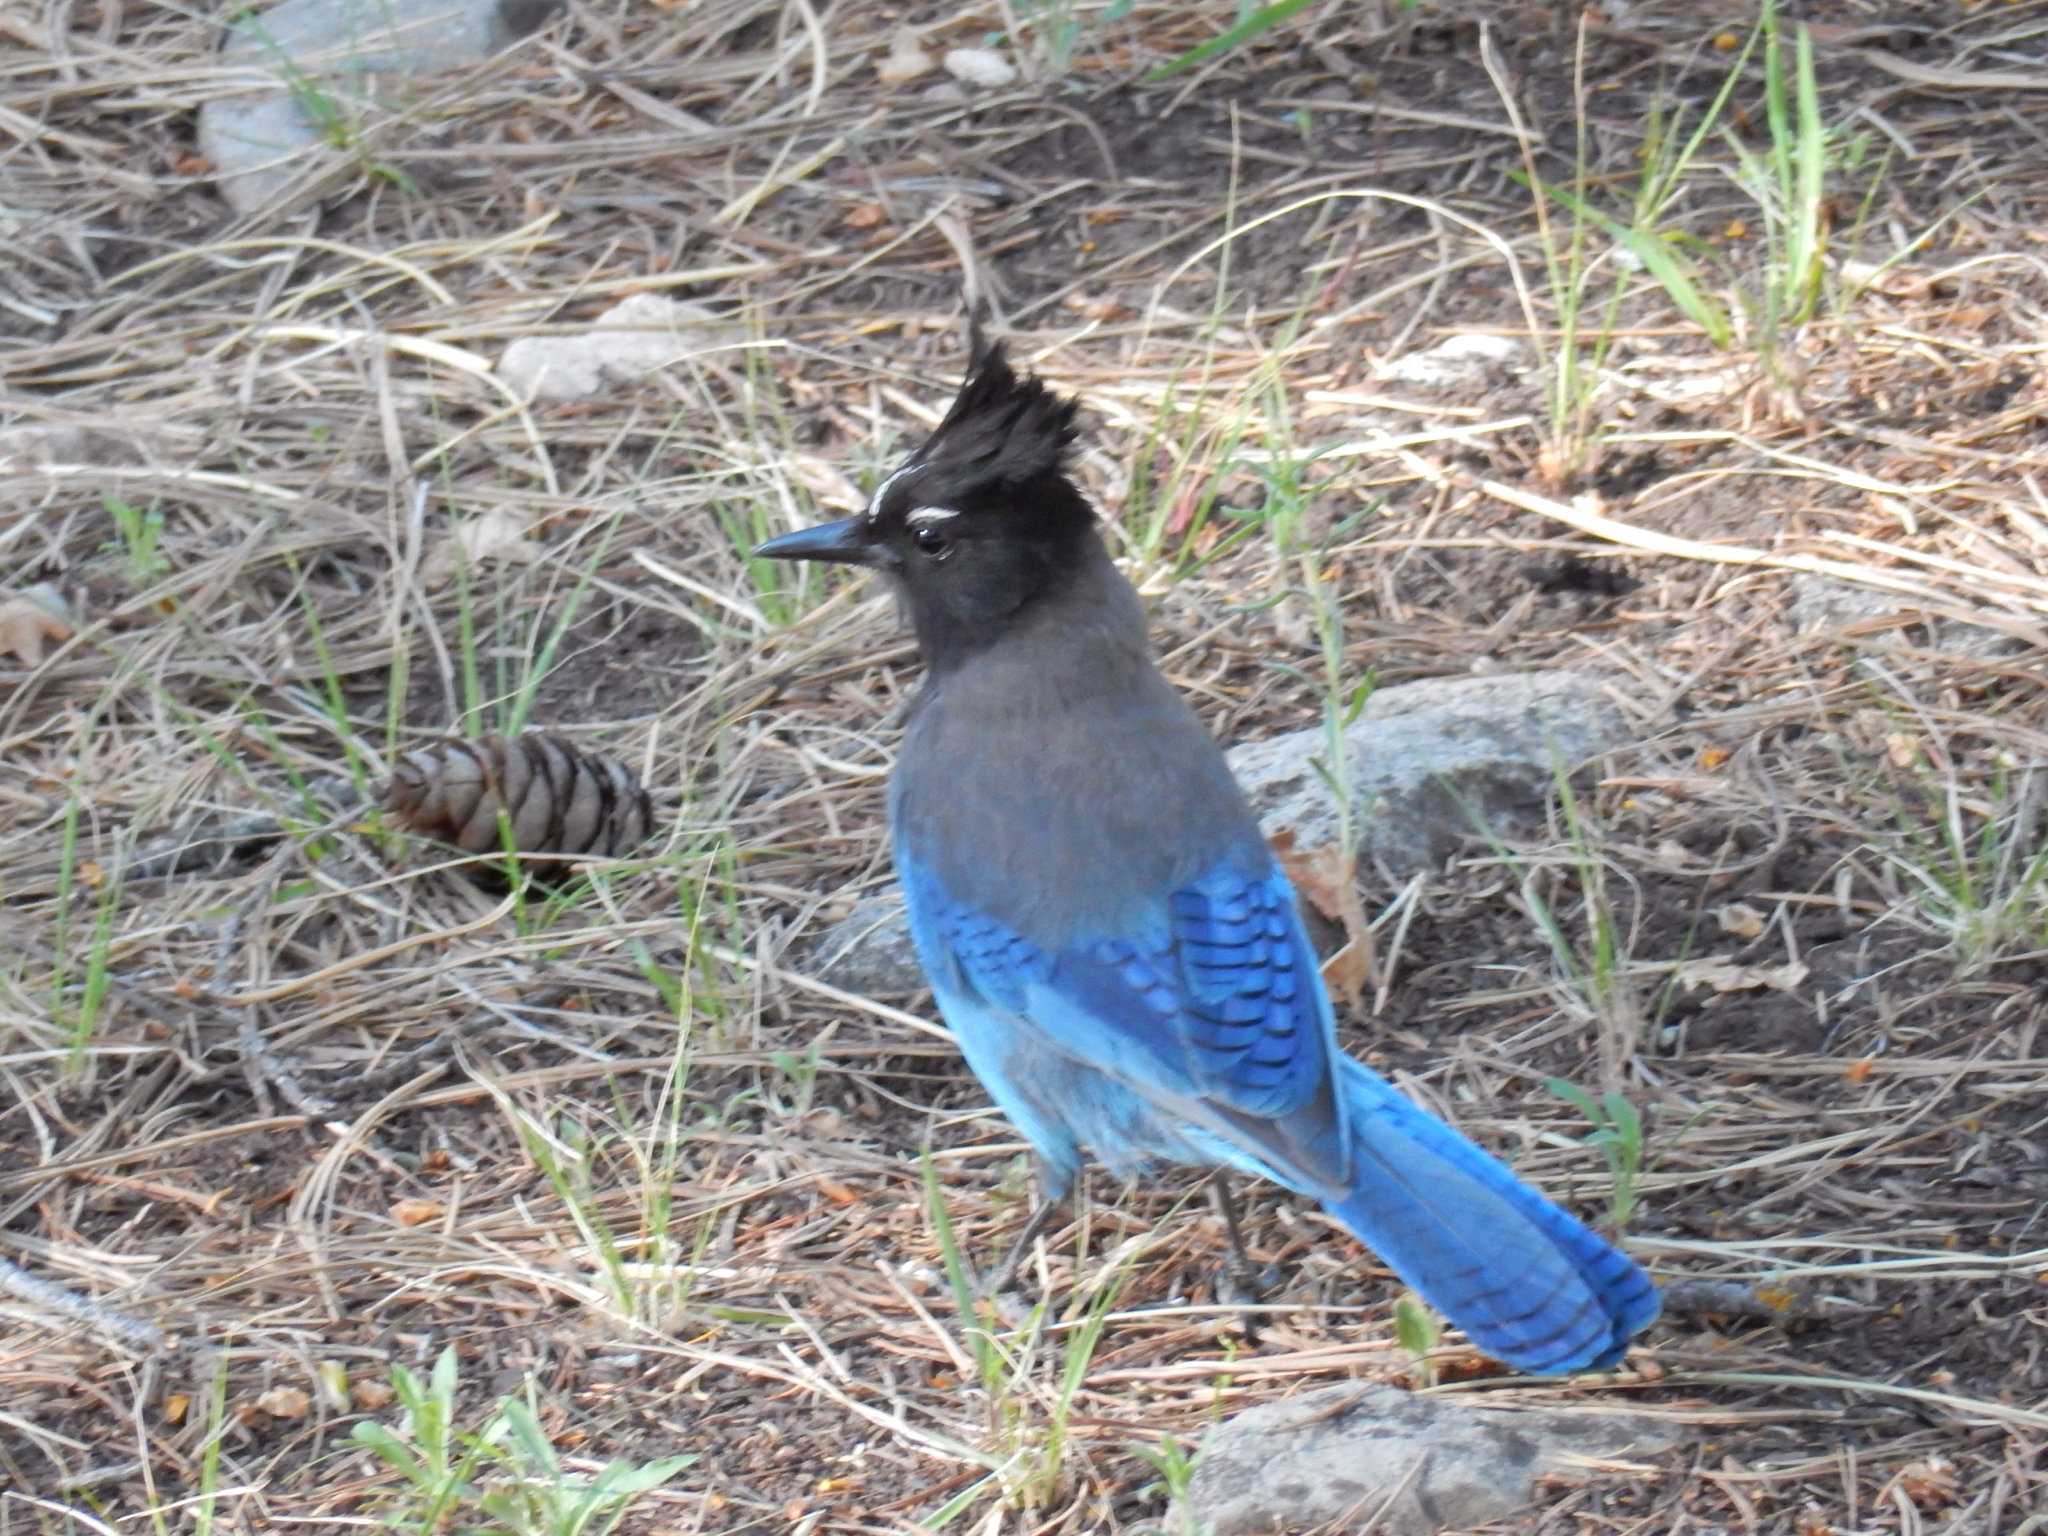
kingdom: Animalia
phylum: Chordata
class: Aves
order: Passeriformes
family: Corvidae
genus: Cyanocitta
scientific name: Cyanocitta stelleri
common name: Steller's jay
